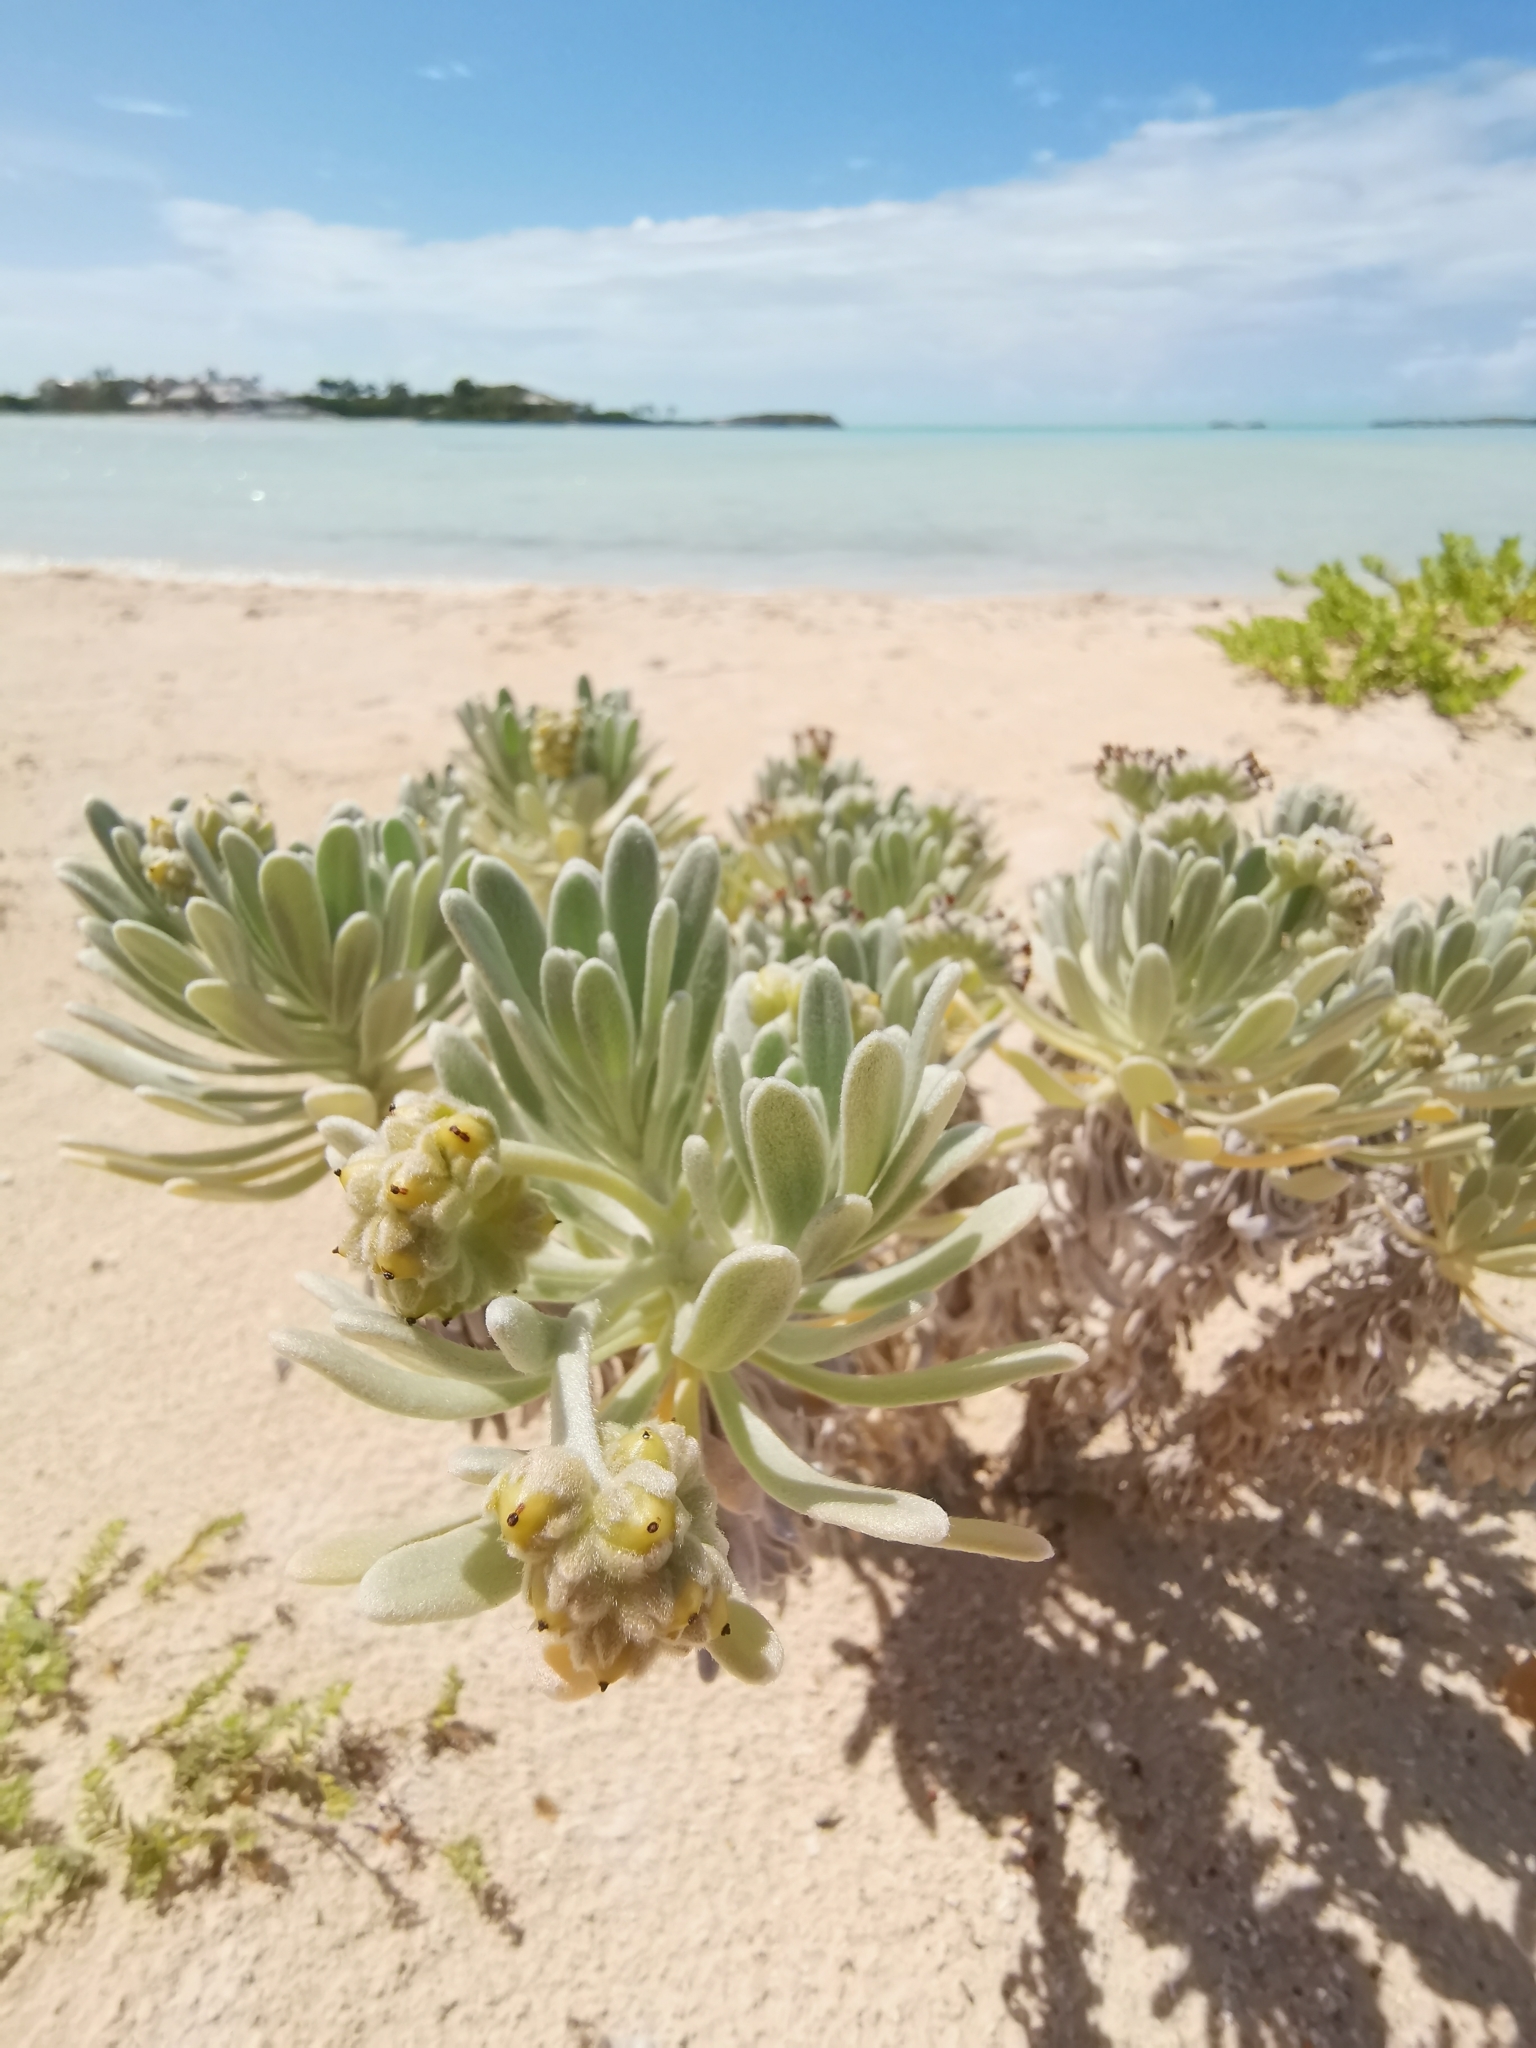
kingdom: Plantae
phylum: Tracheophyta
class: Magnoliopsida
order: Boraginales
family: Heliotropiaceae
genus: Tournefortia
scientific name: Tournefortia gnaphalodes
